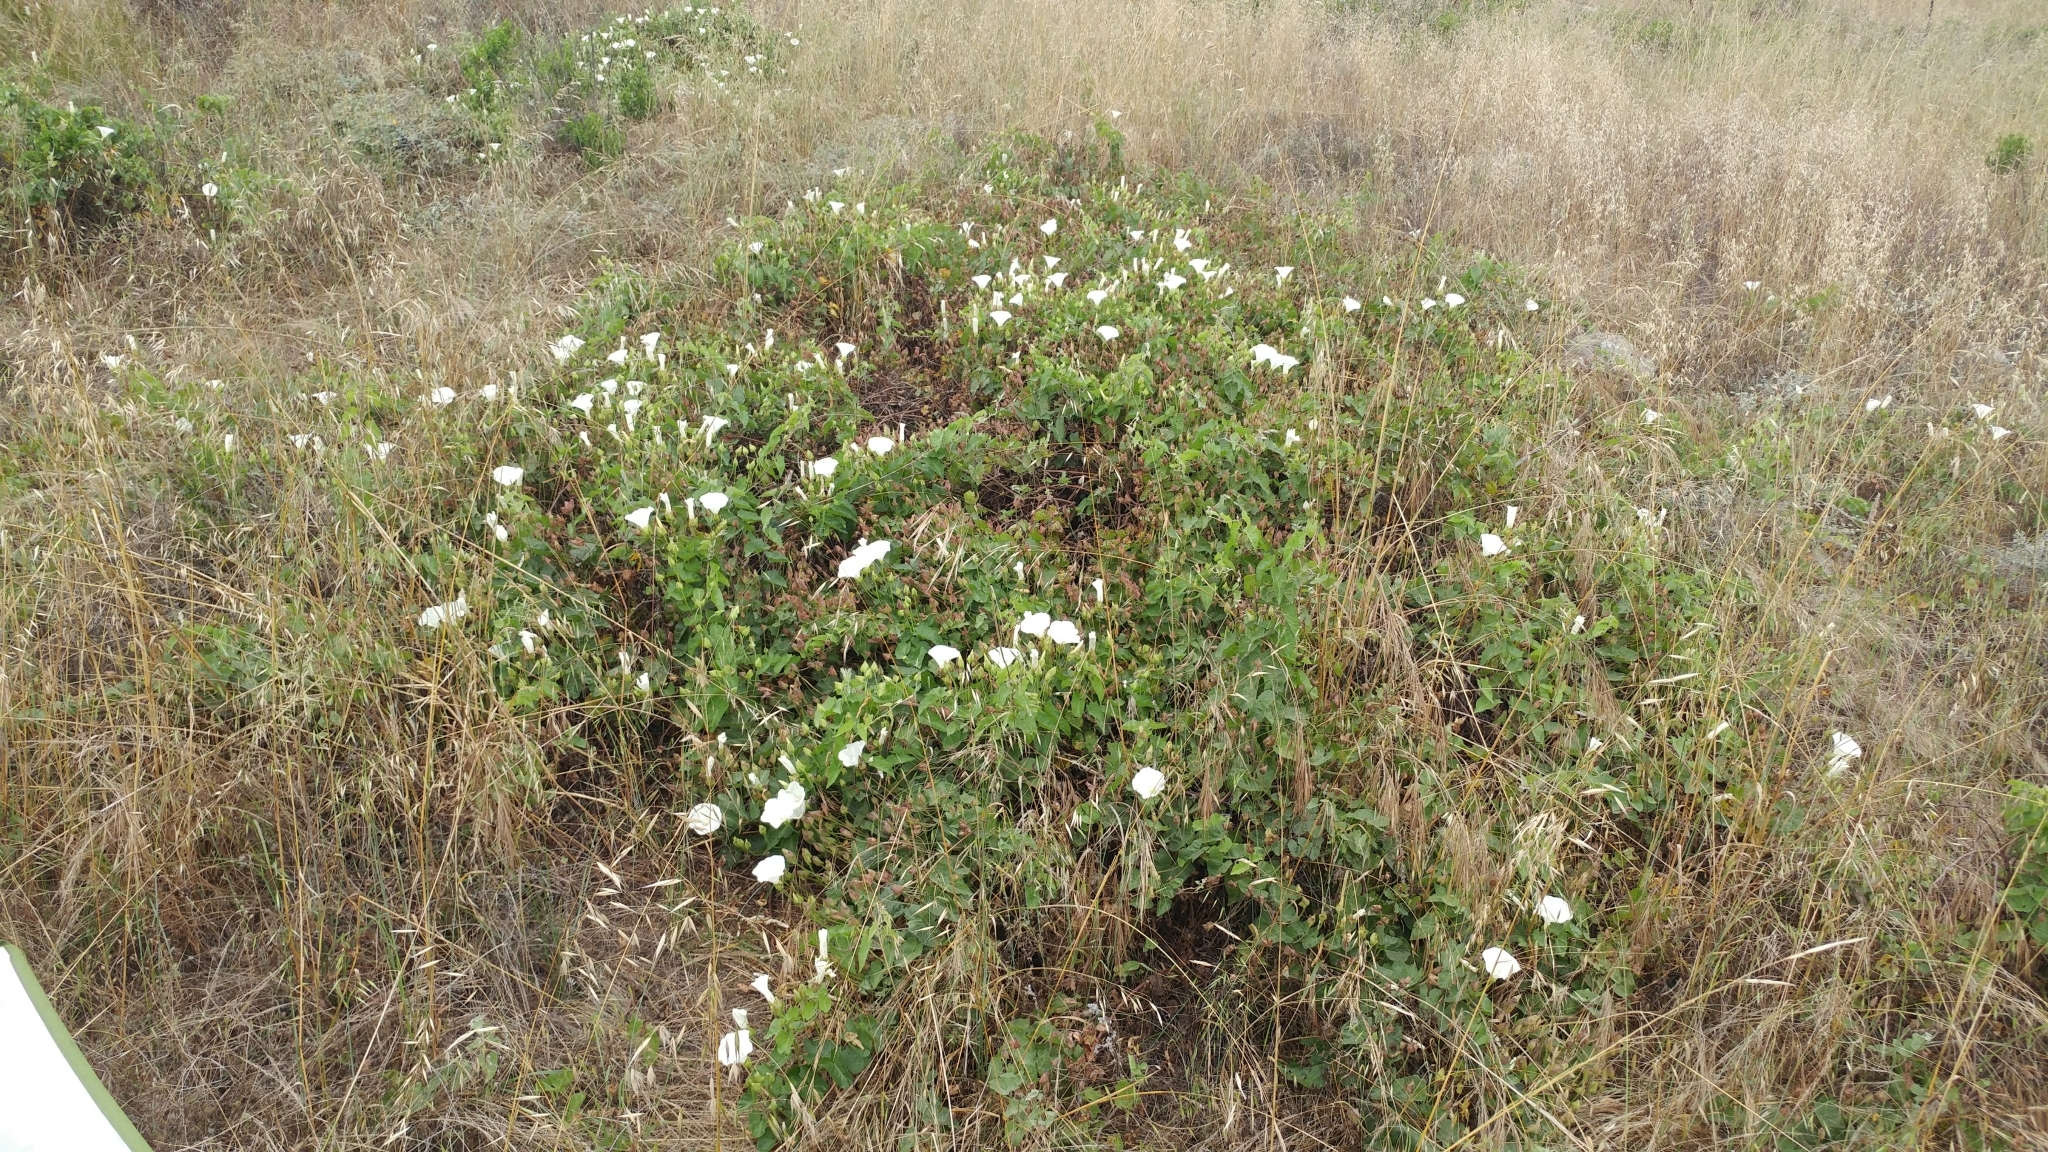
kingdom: Plantae
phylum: Tracheophyta
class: Magnoliopsida
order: Solanales
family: Convolvulaceae
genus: Calystegia
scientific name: Calystegia macrostegia
